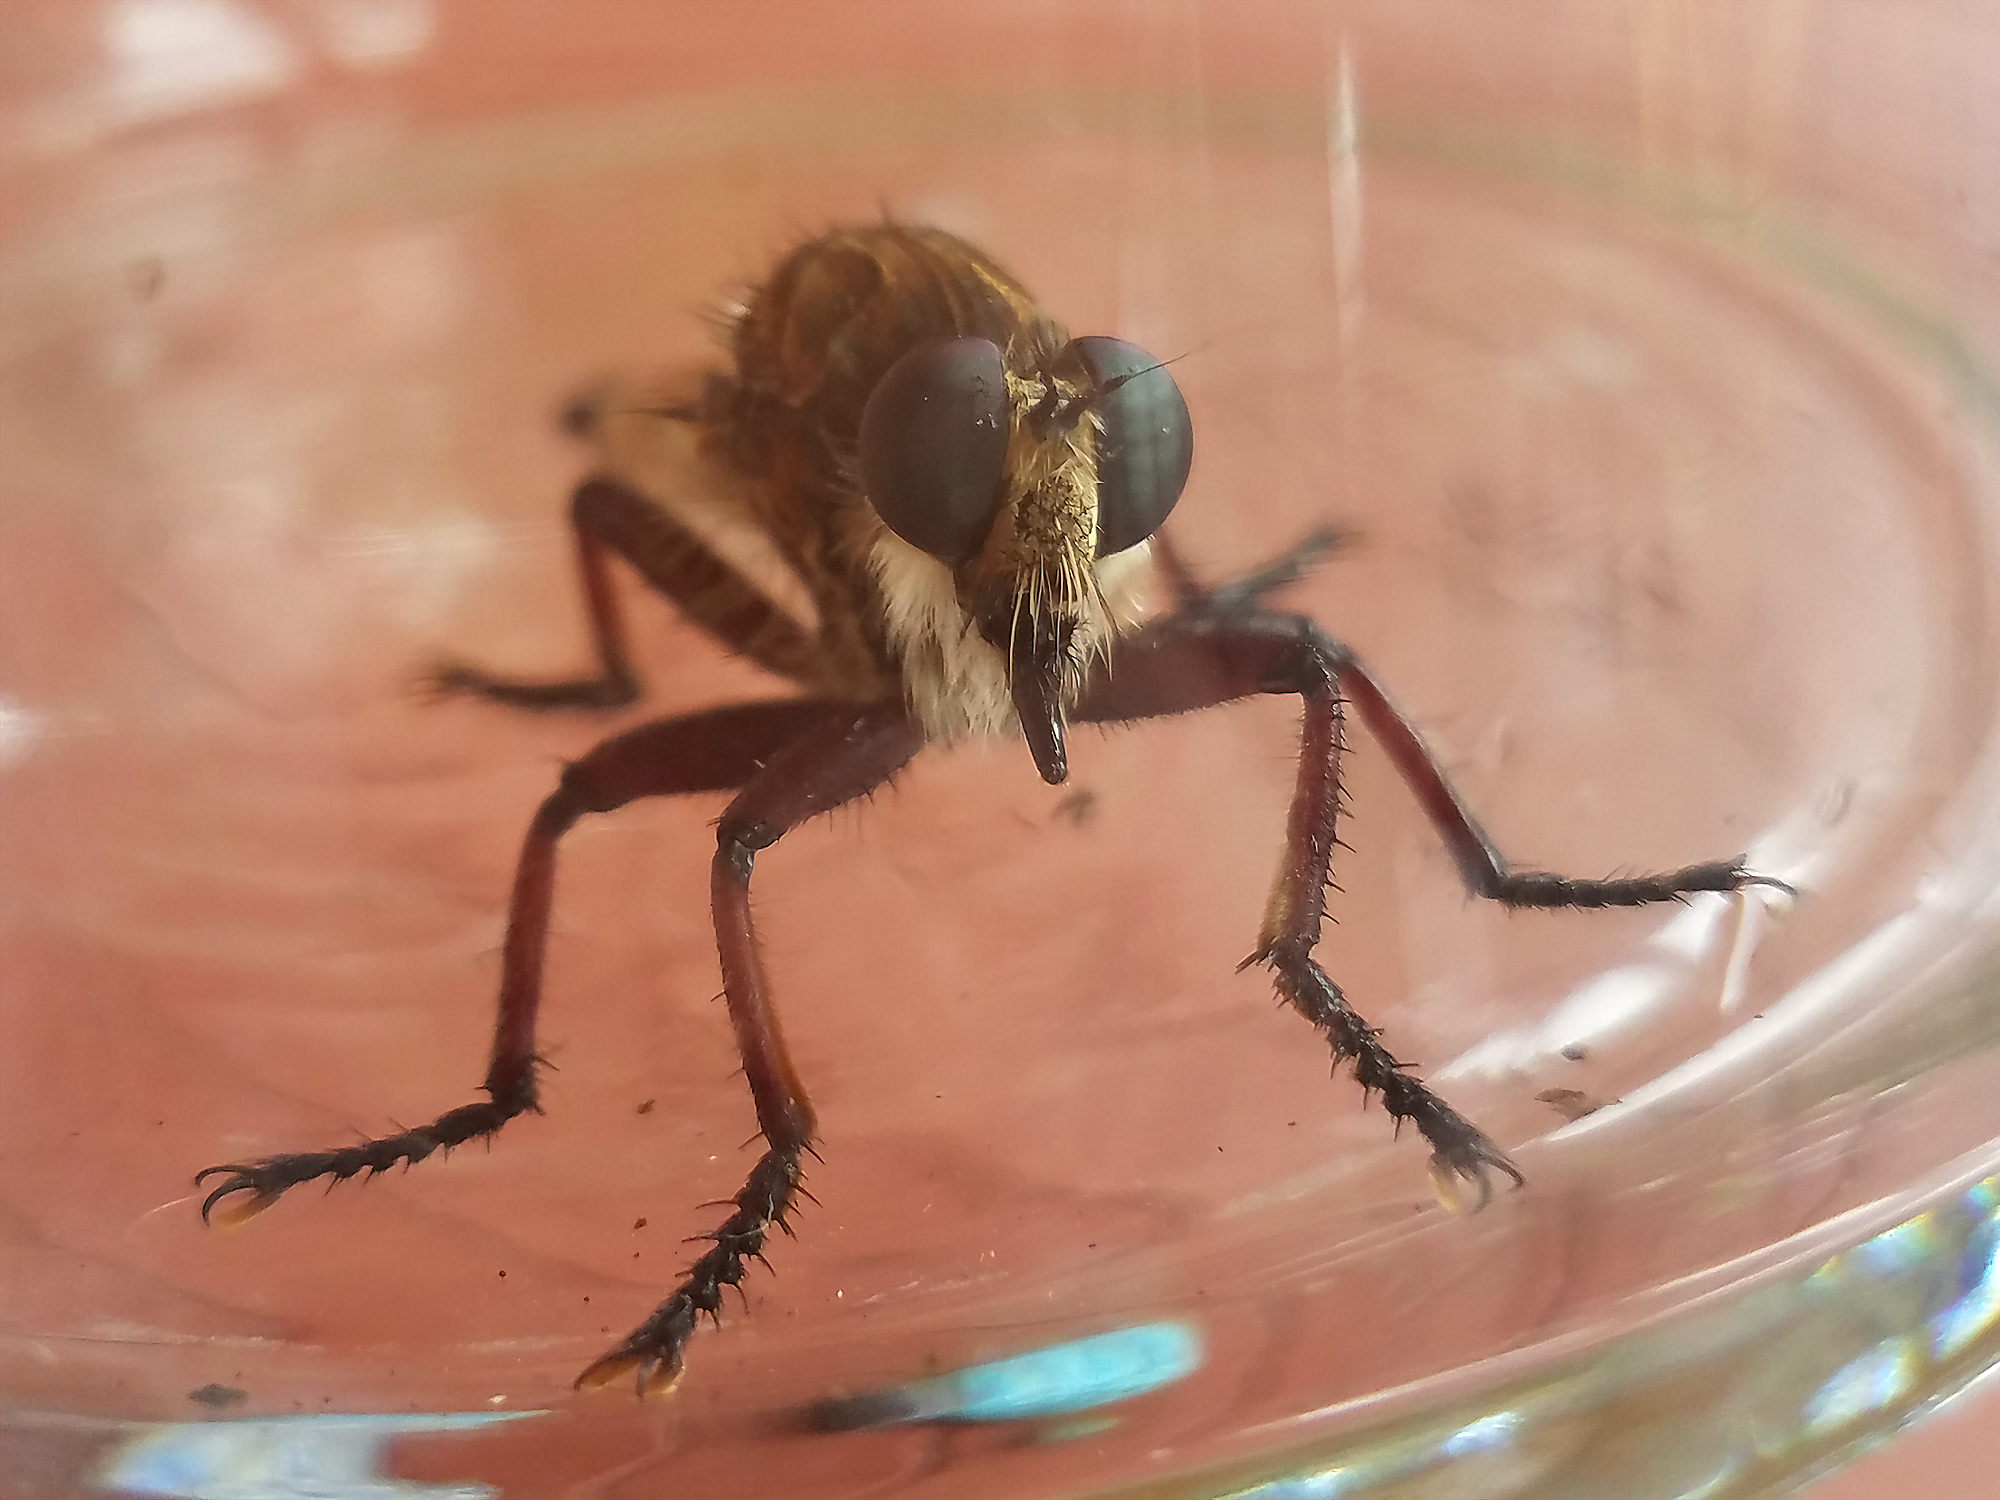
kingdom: Animalia
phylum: Arthropoda
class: Insecta
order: Diptera
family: Asilidae
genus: Promachus
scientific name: Promachus hinei
